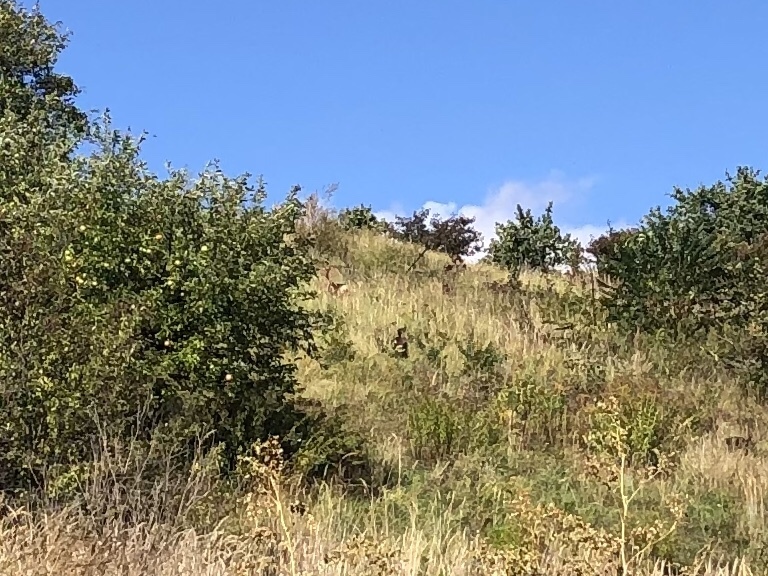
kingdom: Animalia
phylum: Chordata
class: Mammalia
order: Artiodactyla
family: Cervidae
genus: Capreolus
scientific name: Capreolus capreolus
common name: Western roe deer
